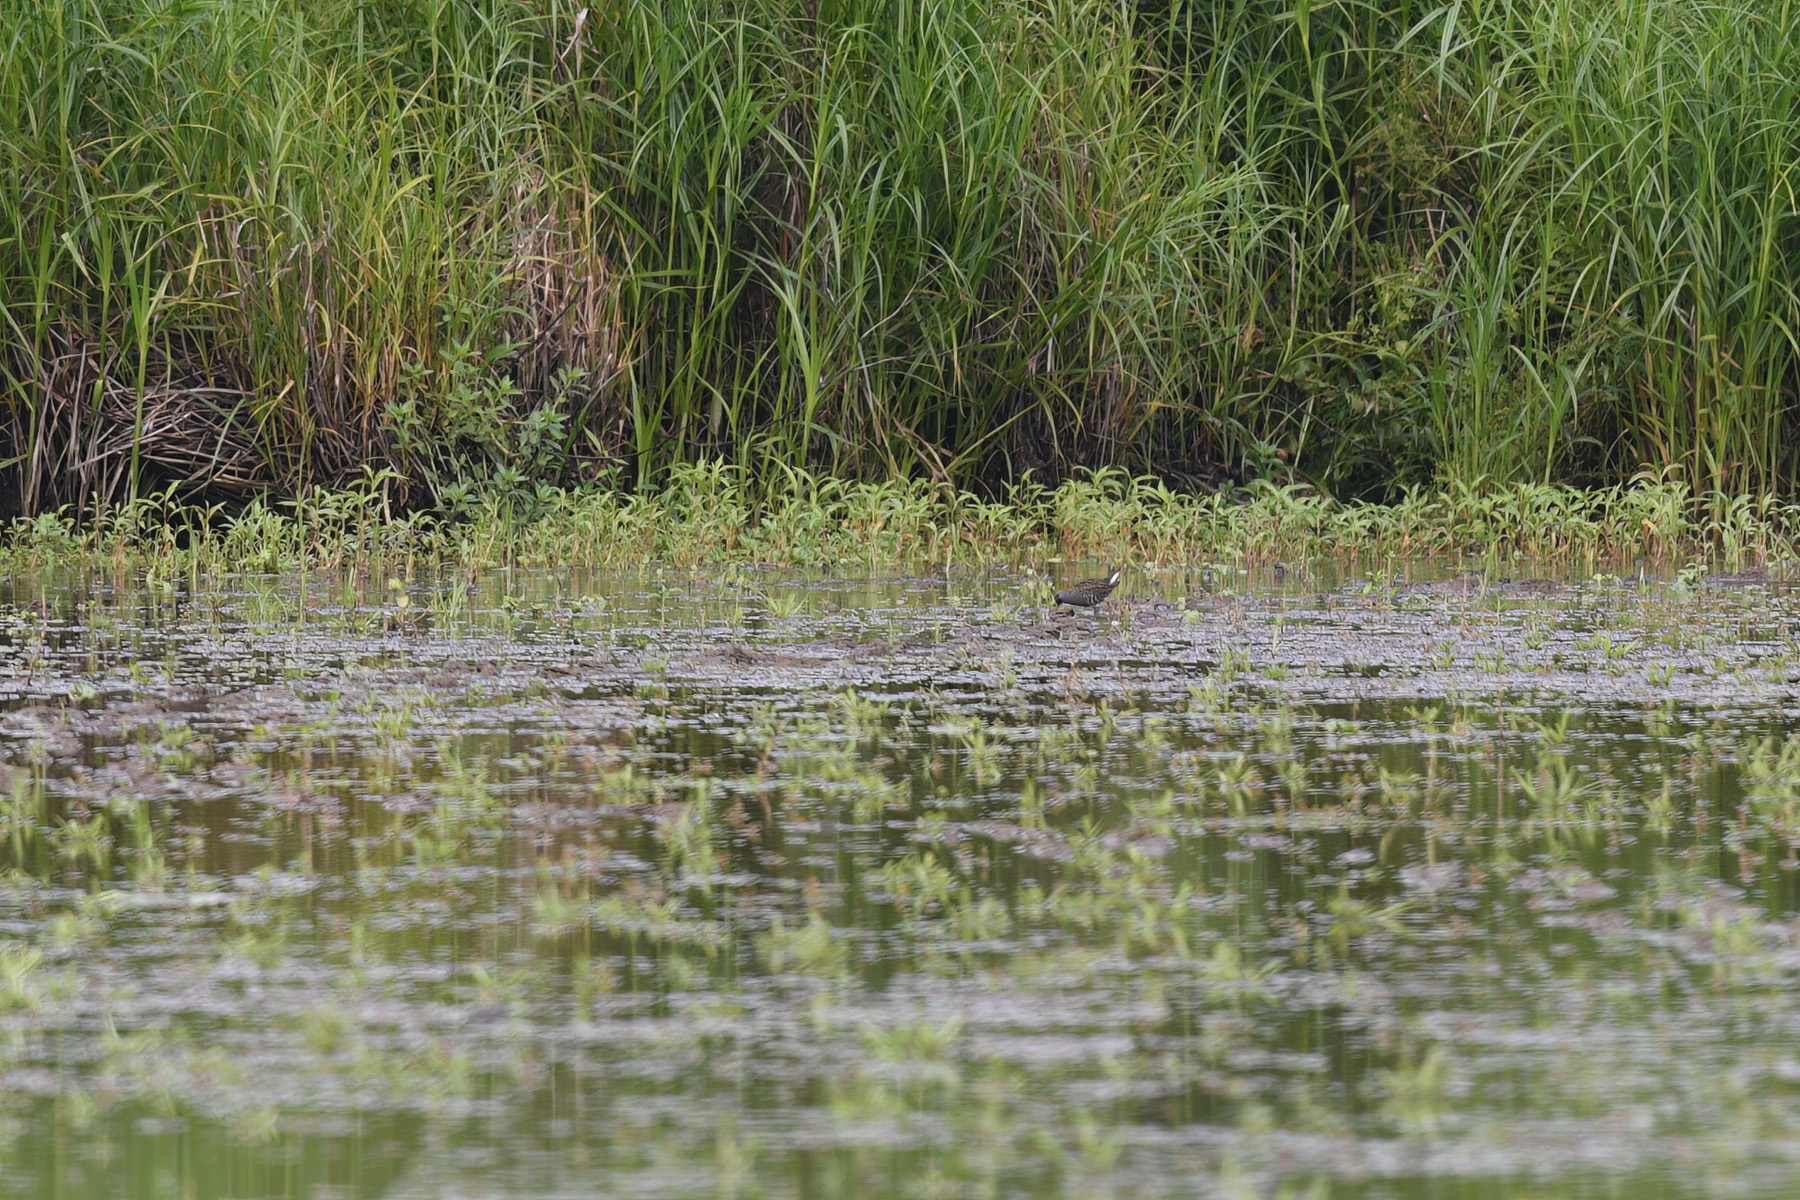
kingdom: Animalia
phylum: Chordata
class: Aves
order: Gruiformes
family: Rallidae
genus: Porzana
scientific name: Porzana fluminea
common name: Australian crake
